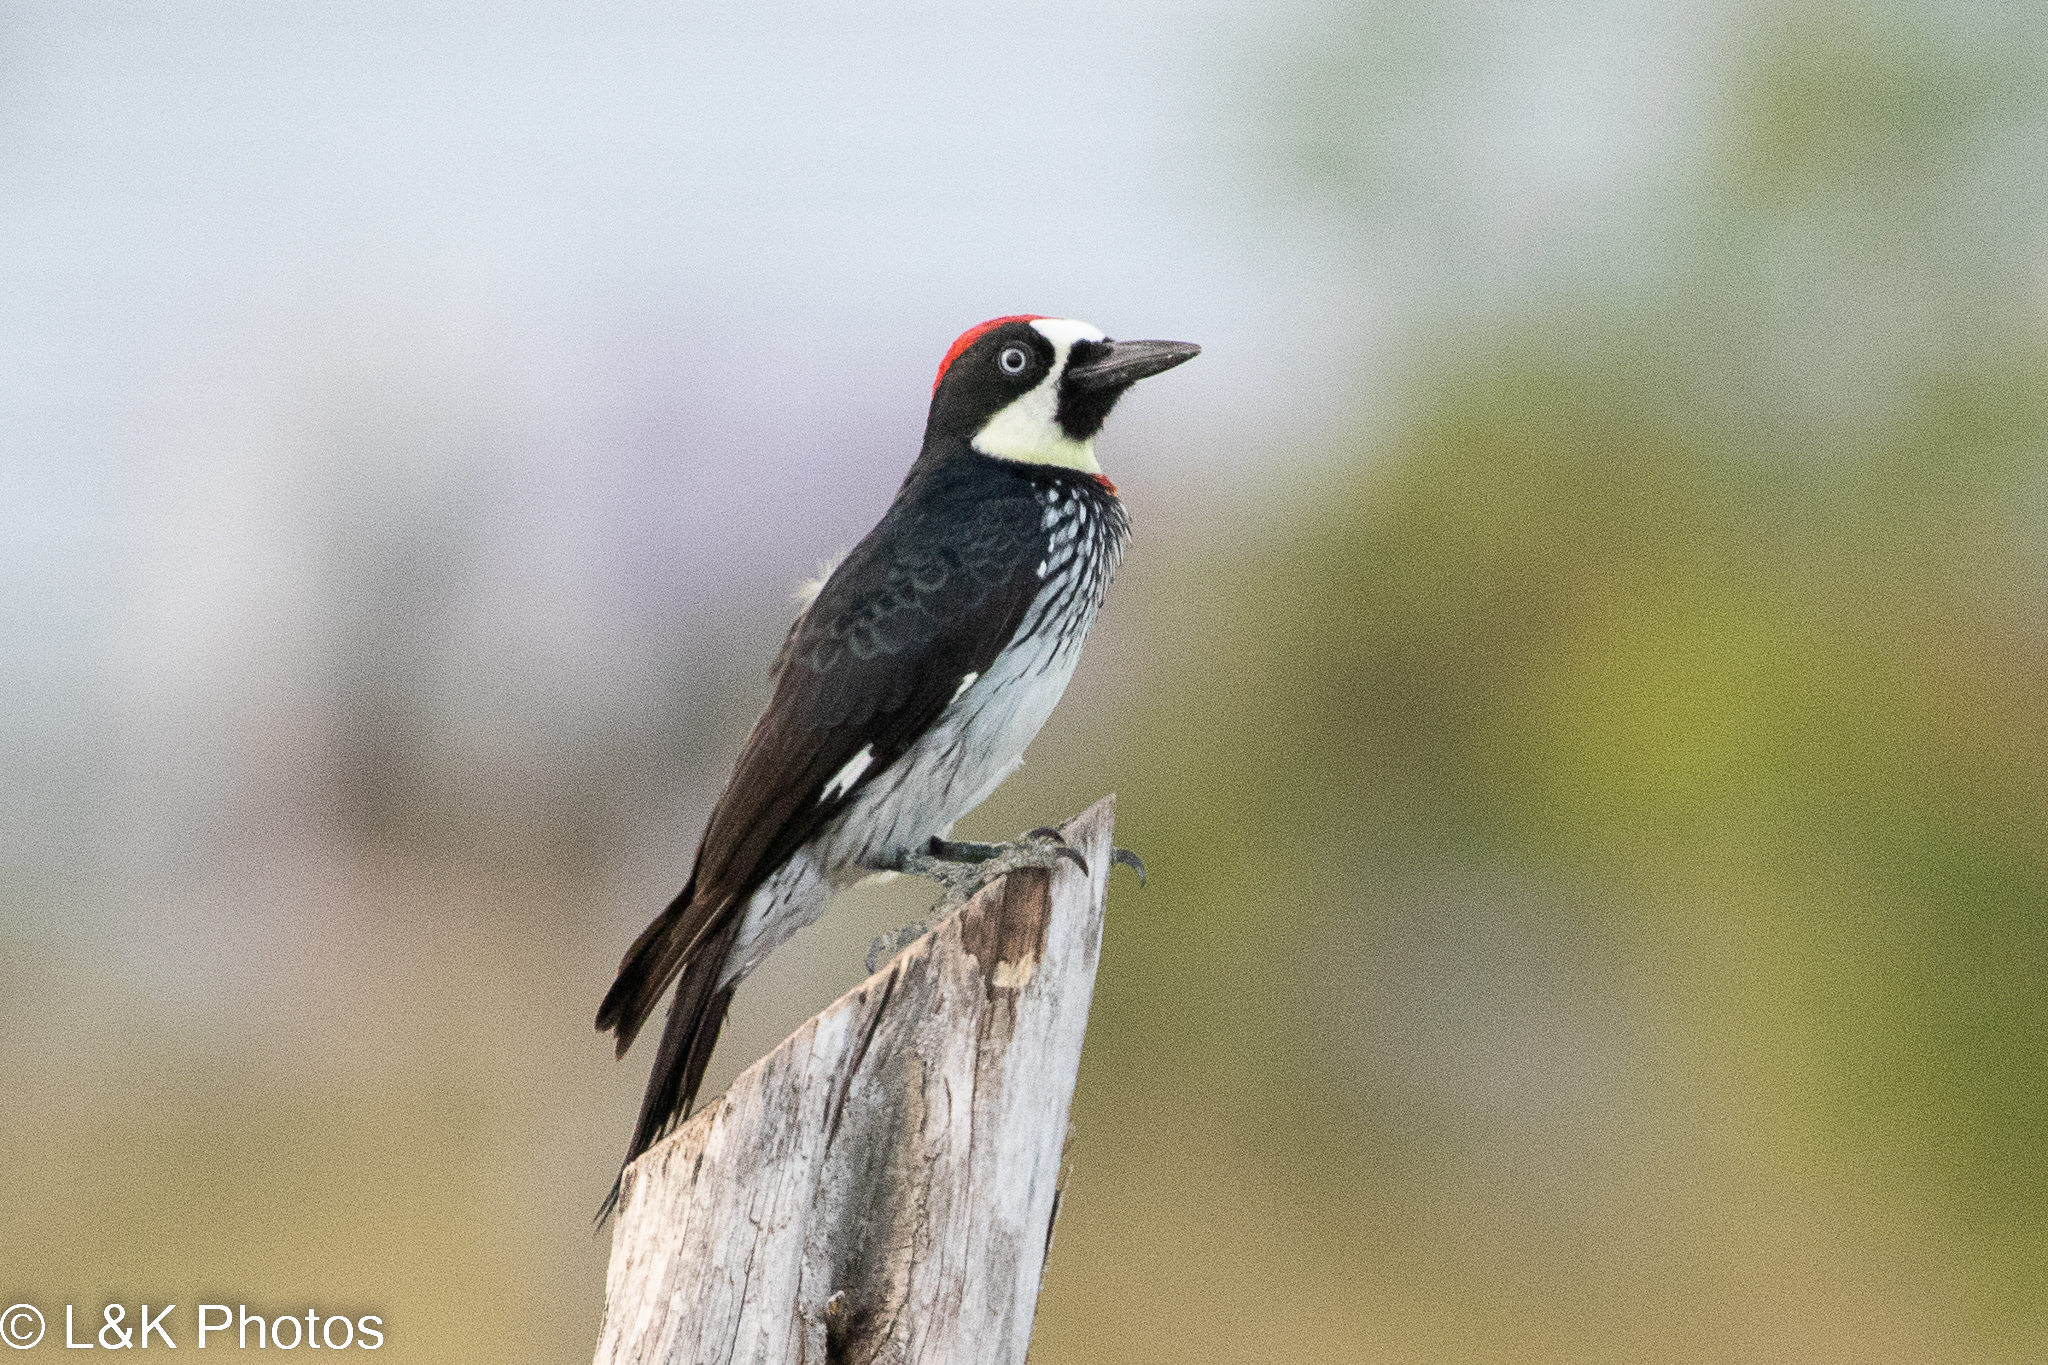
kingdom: Animalia
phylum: Chordata
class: Aves
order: Piciformes
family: Picidae
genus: Melanerpes
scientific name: Melanerpes formicivorus
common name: Acorn woodpecker
